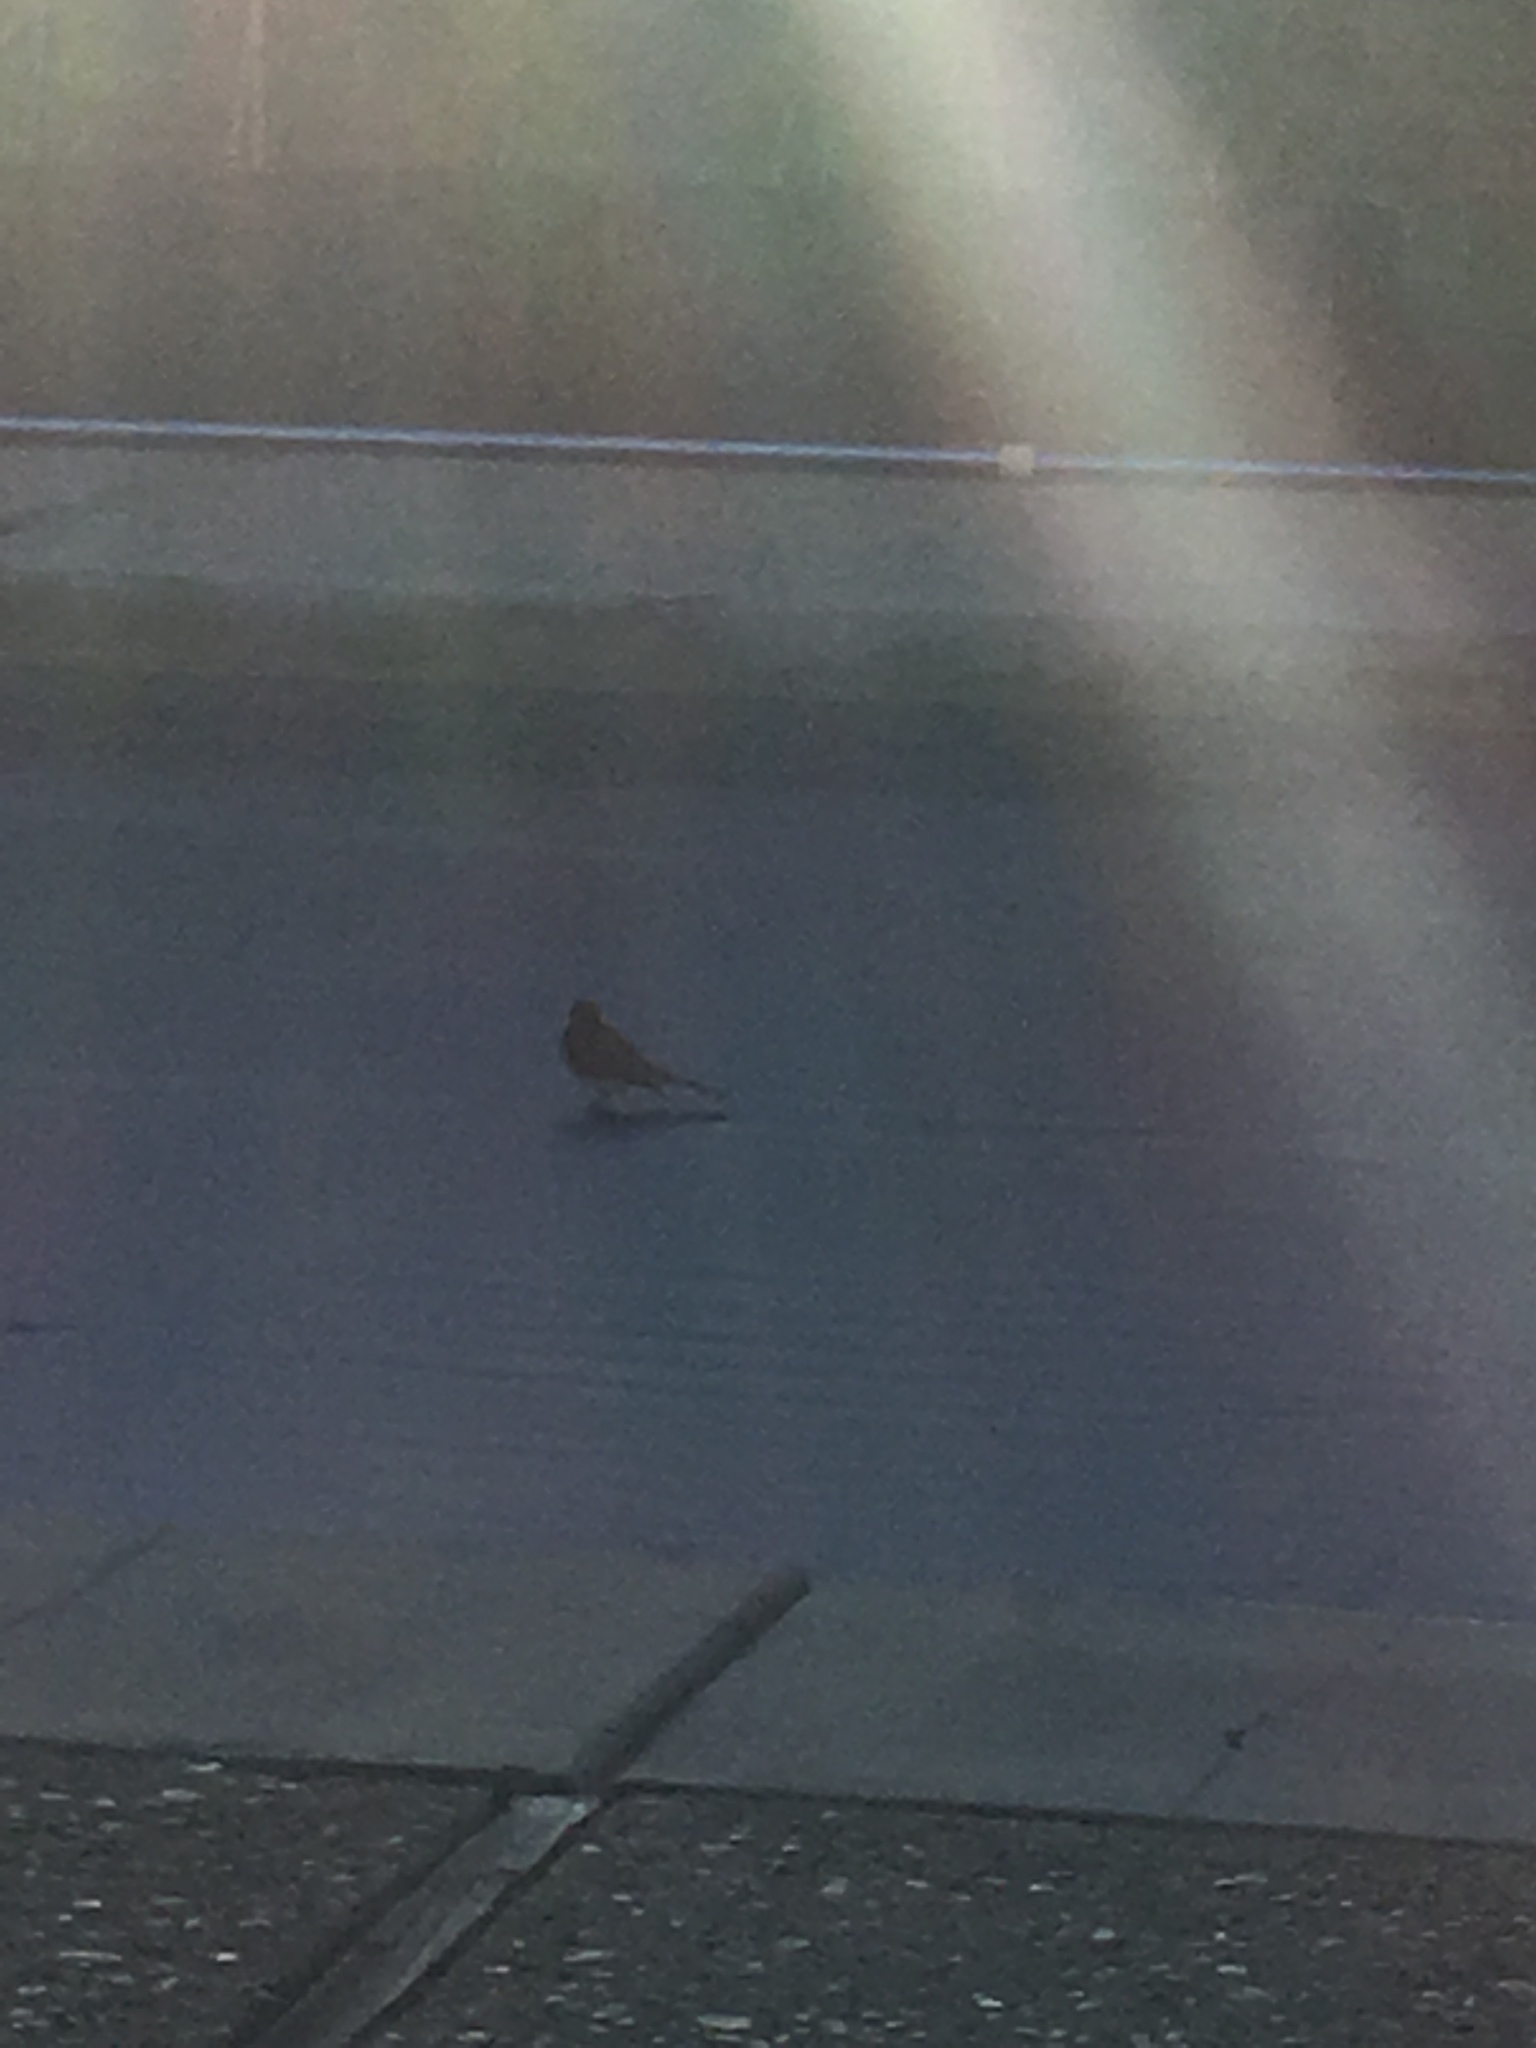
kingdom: Animalia
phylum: Chordata
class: Aves
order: Passeriformes
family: Tyrannidae
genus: Sayornis
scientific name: Sayornis nigricans
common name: Black phoebe
